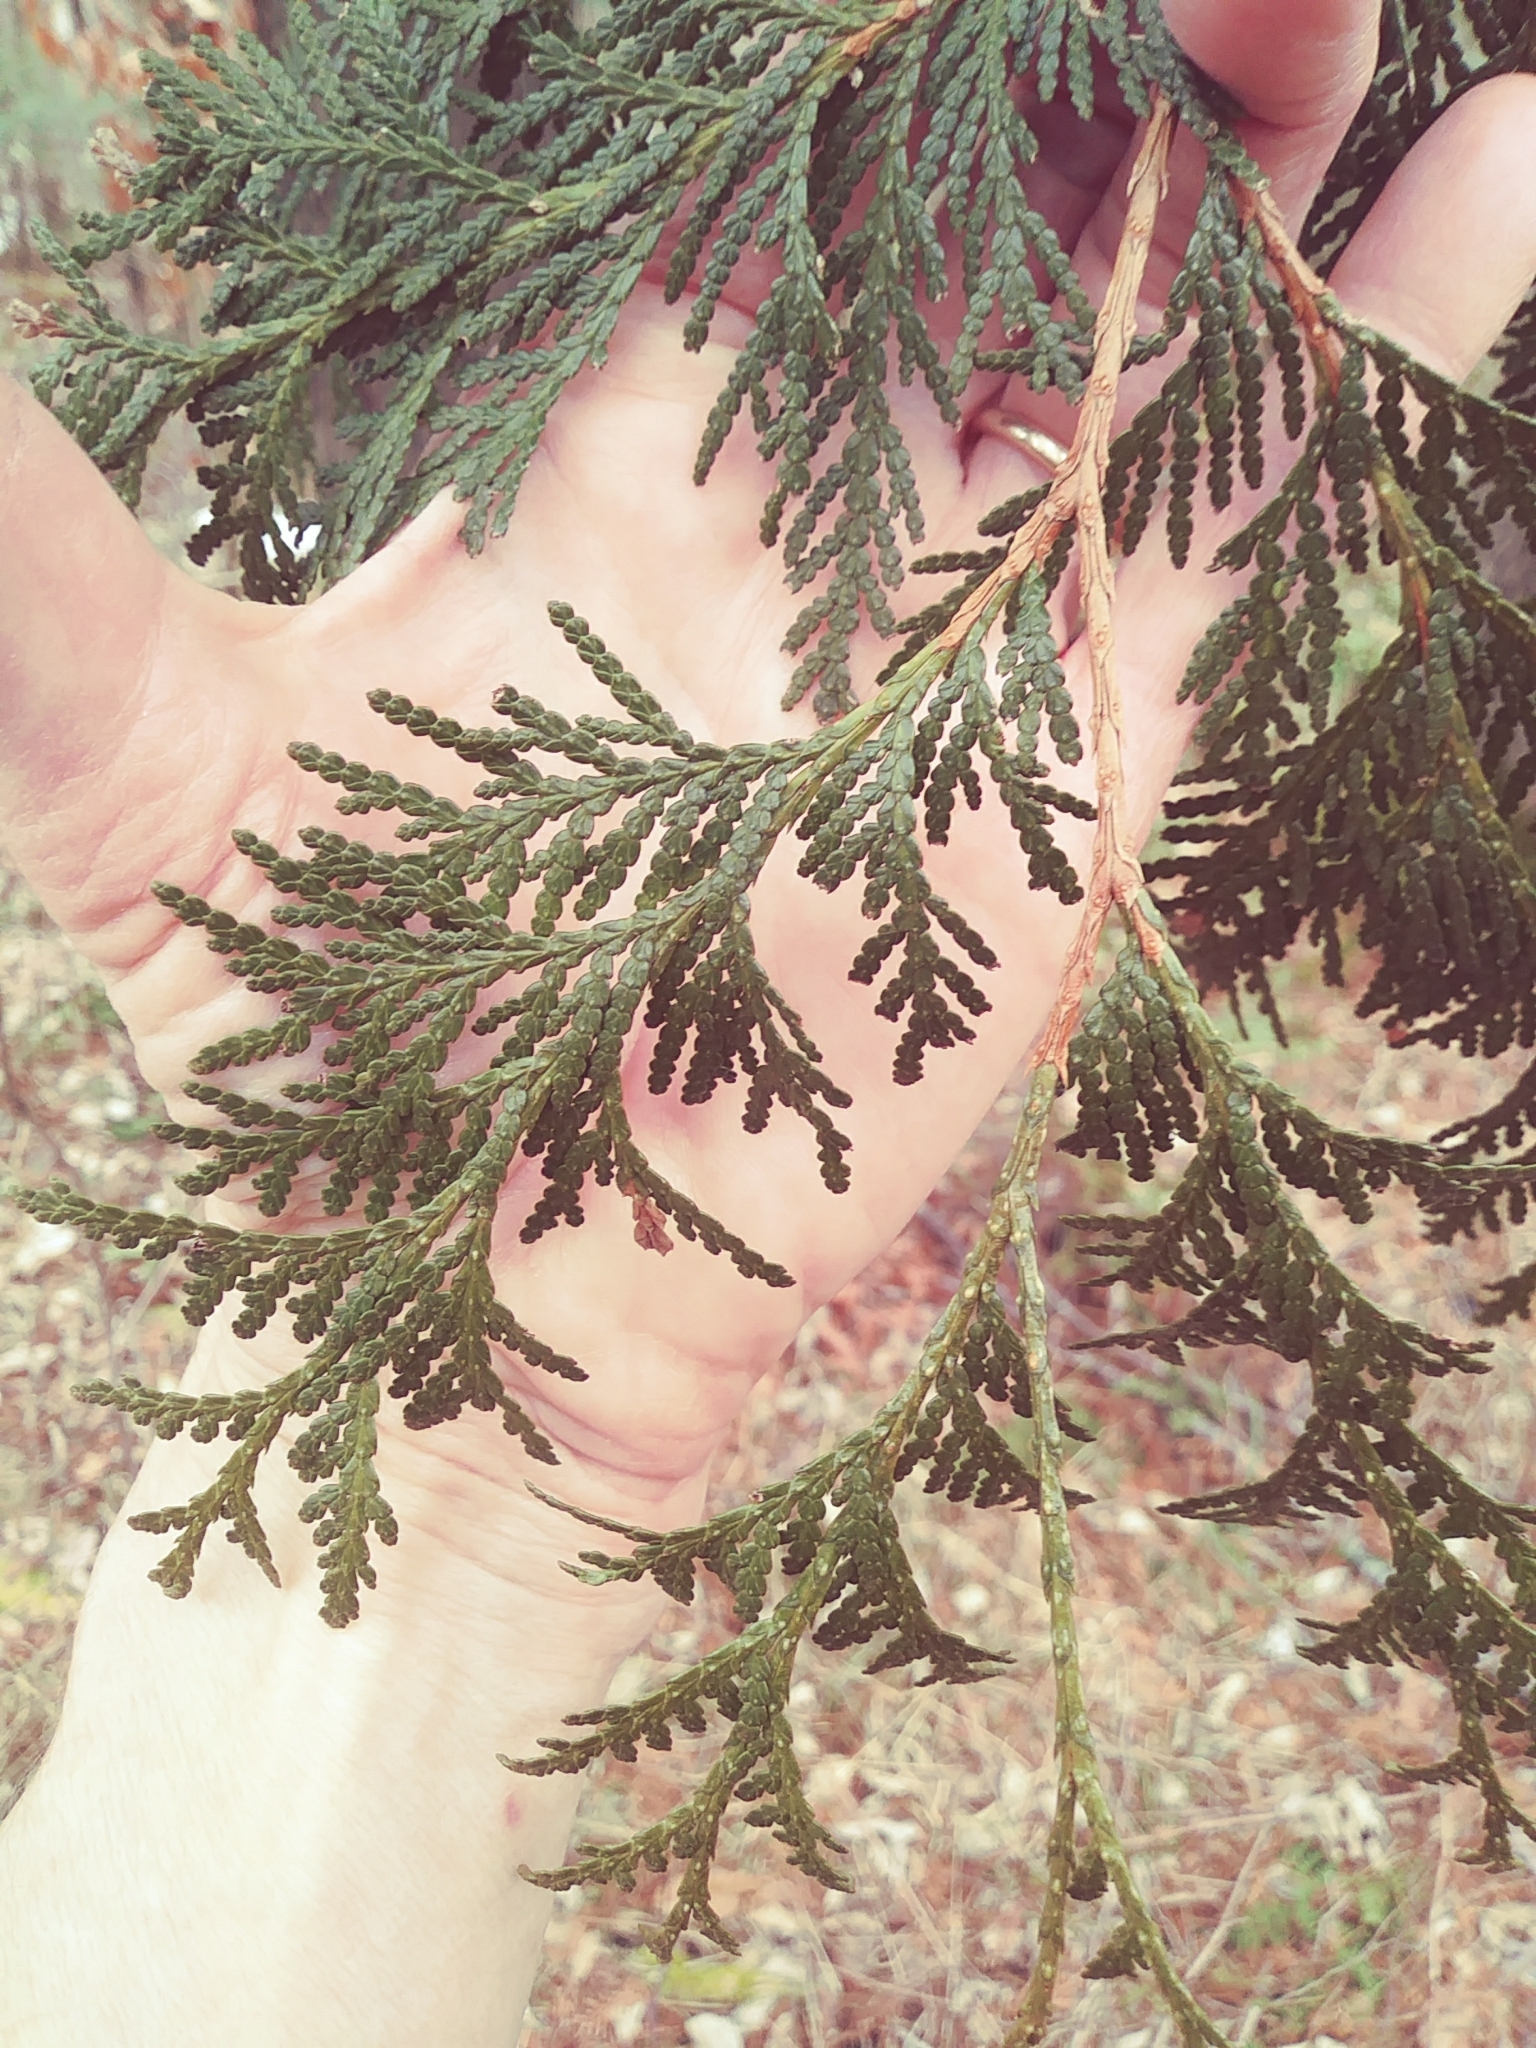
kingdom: Plantae
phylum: Tracheophyta
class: Pinopsida
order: Pinales
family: Cupressaceae
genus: Thuja
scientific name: Thuja occidentalis
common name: Northern white-cedar
